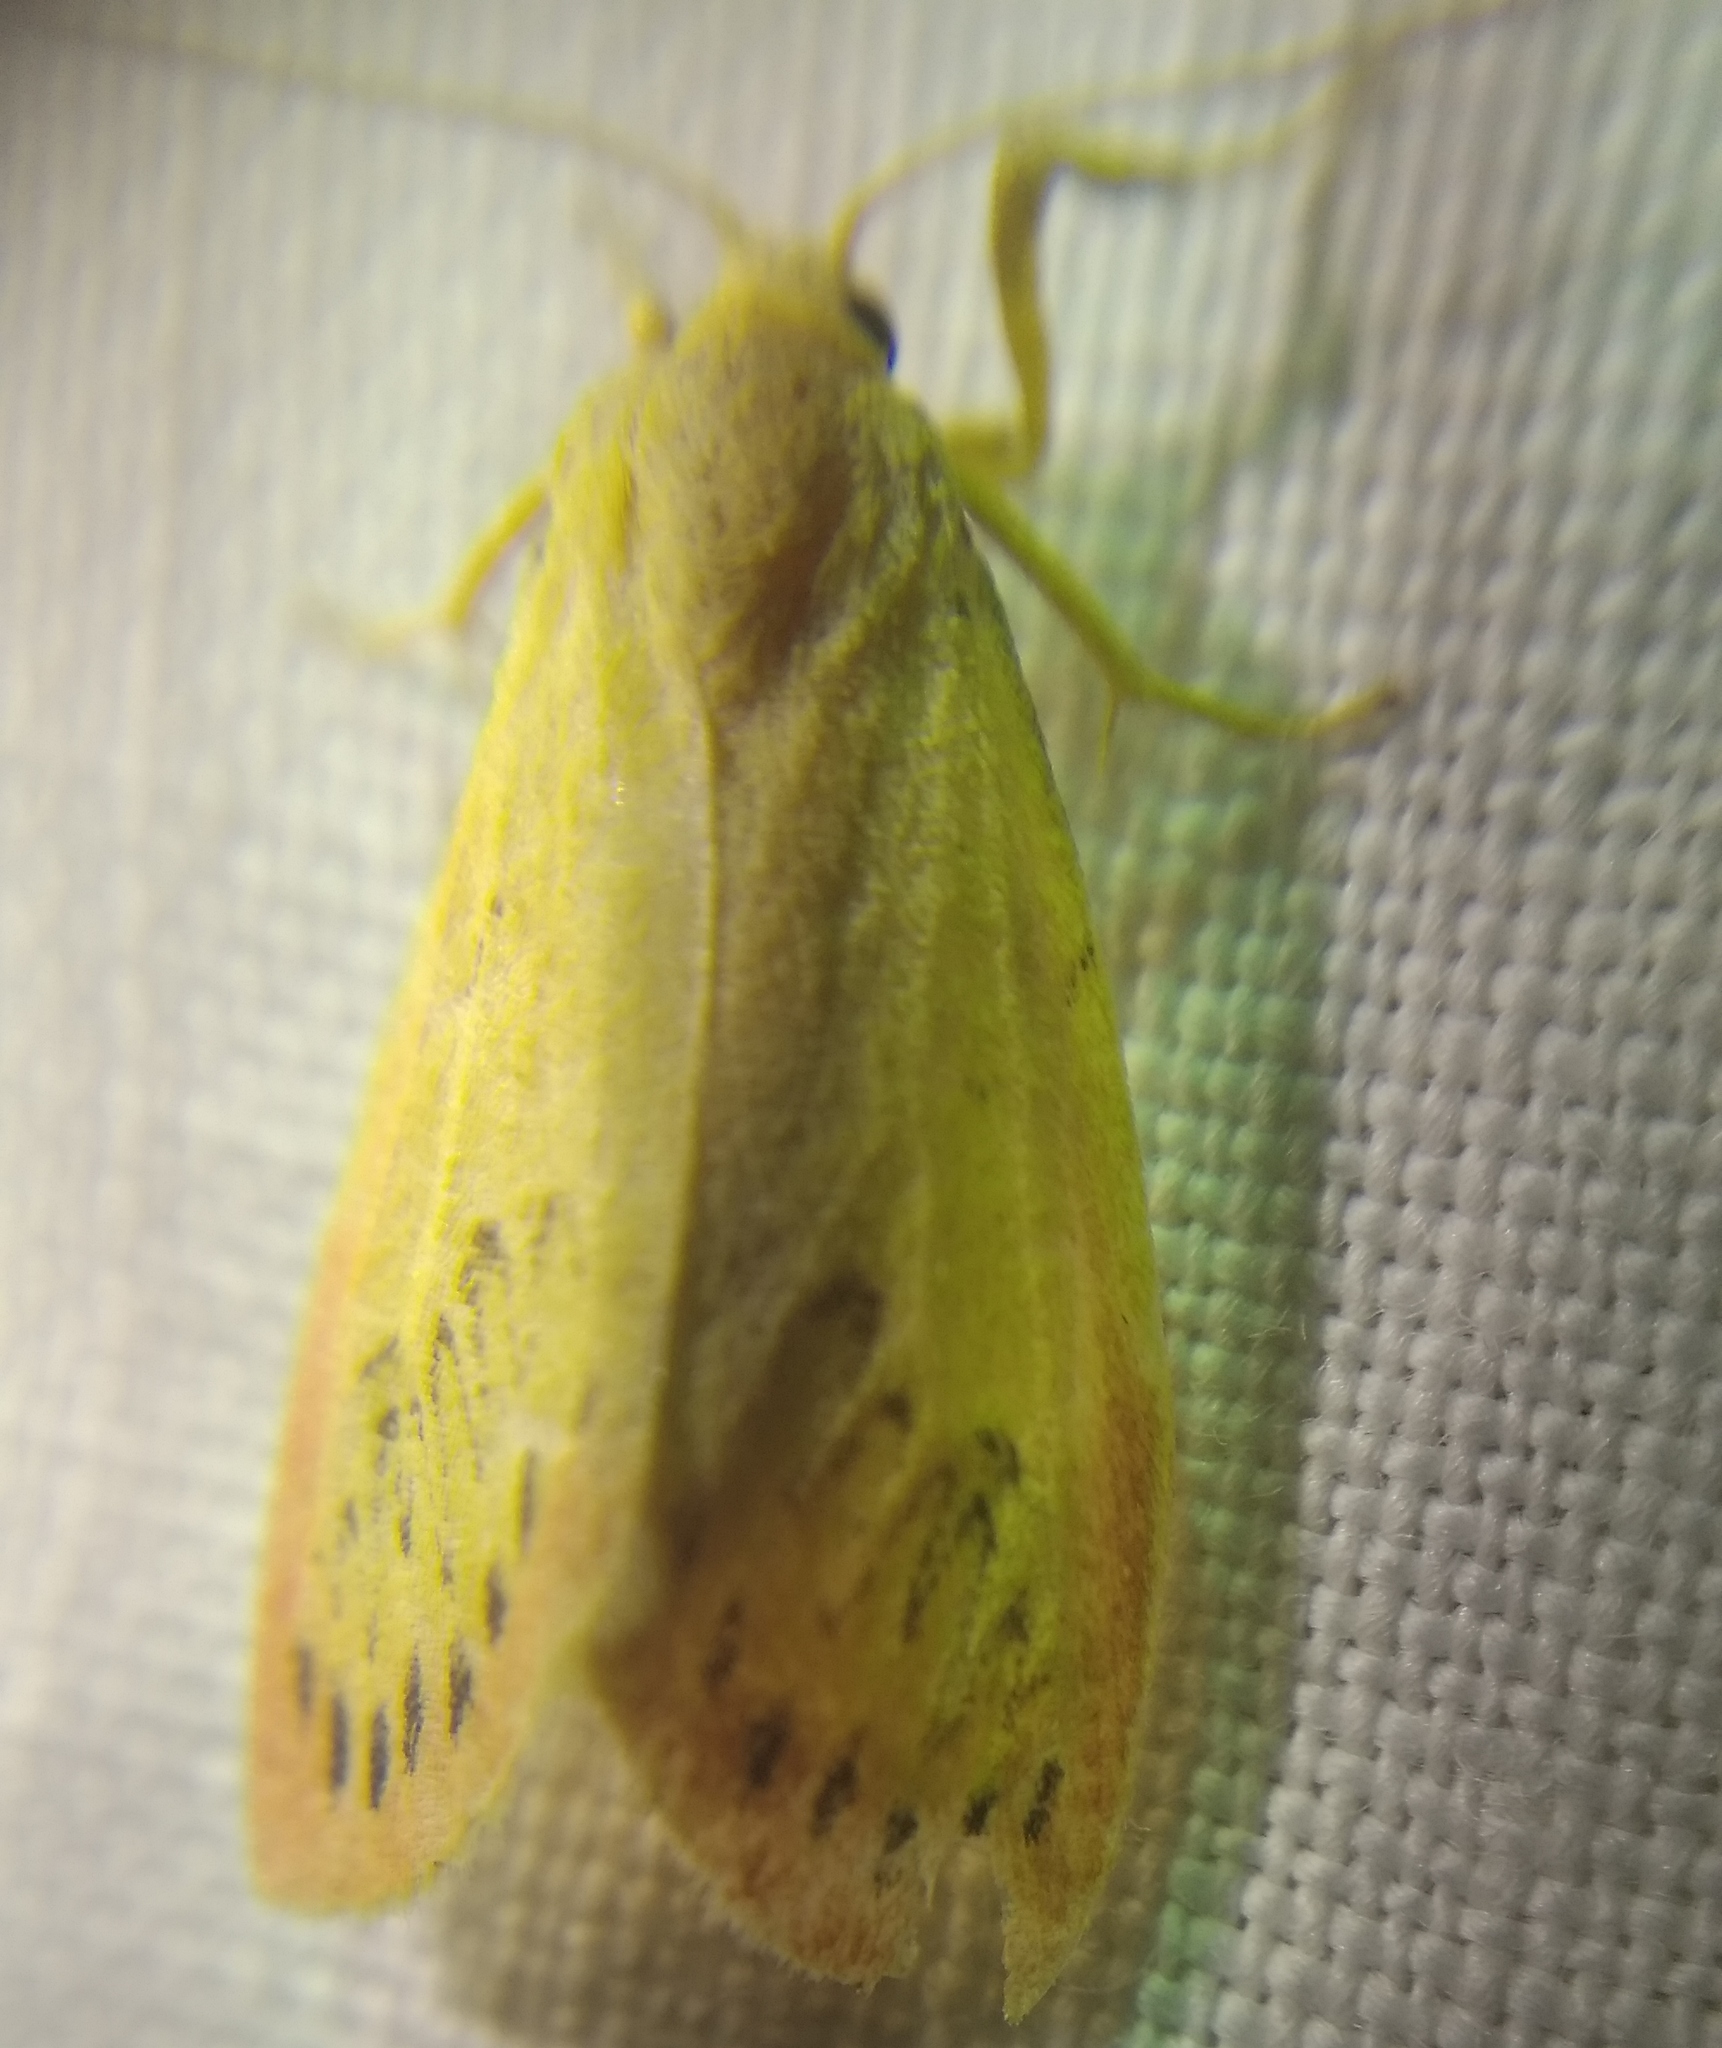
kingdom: Animalia
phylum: Arthropoda
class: Insecta
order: Lepidoptera
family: Erebidae
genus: Miltochrista
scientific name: Miltochrista miniata
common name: Rosy footman
